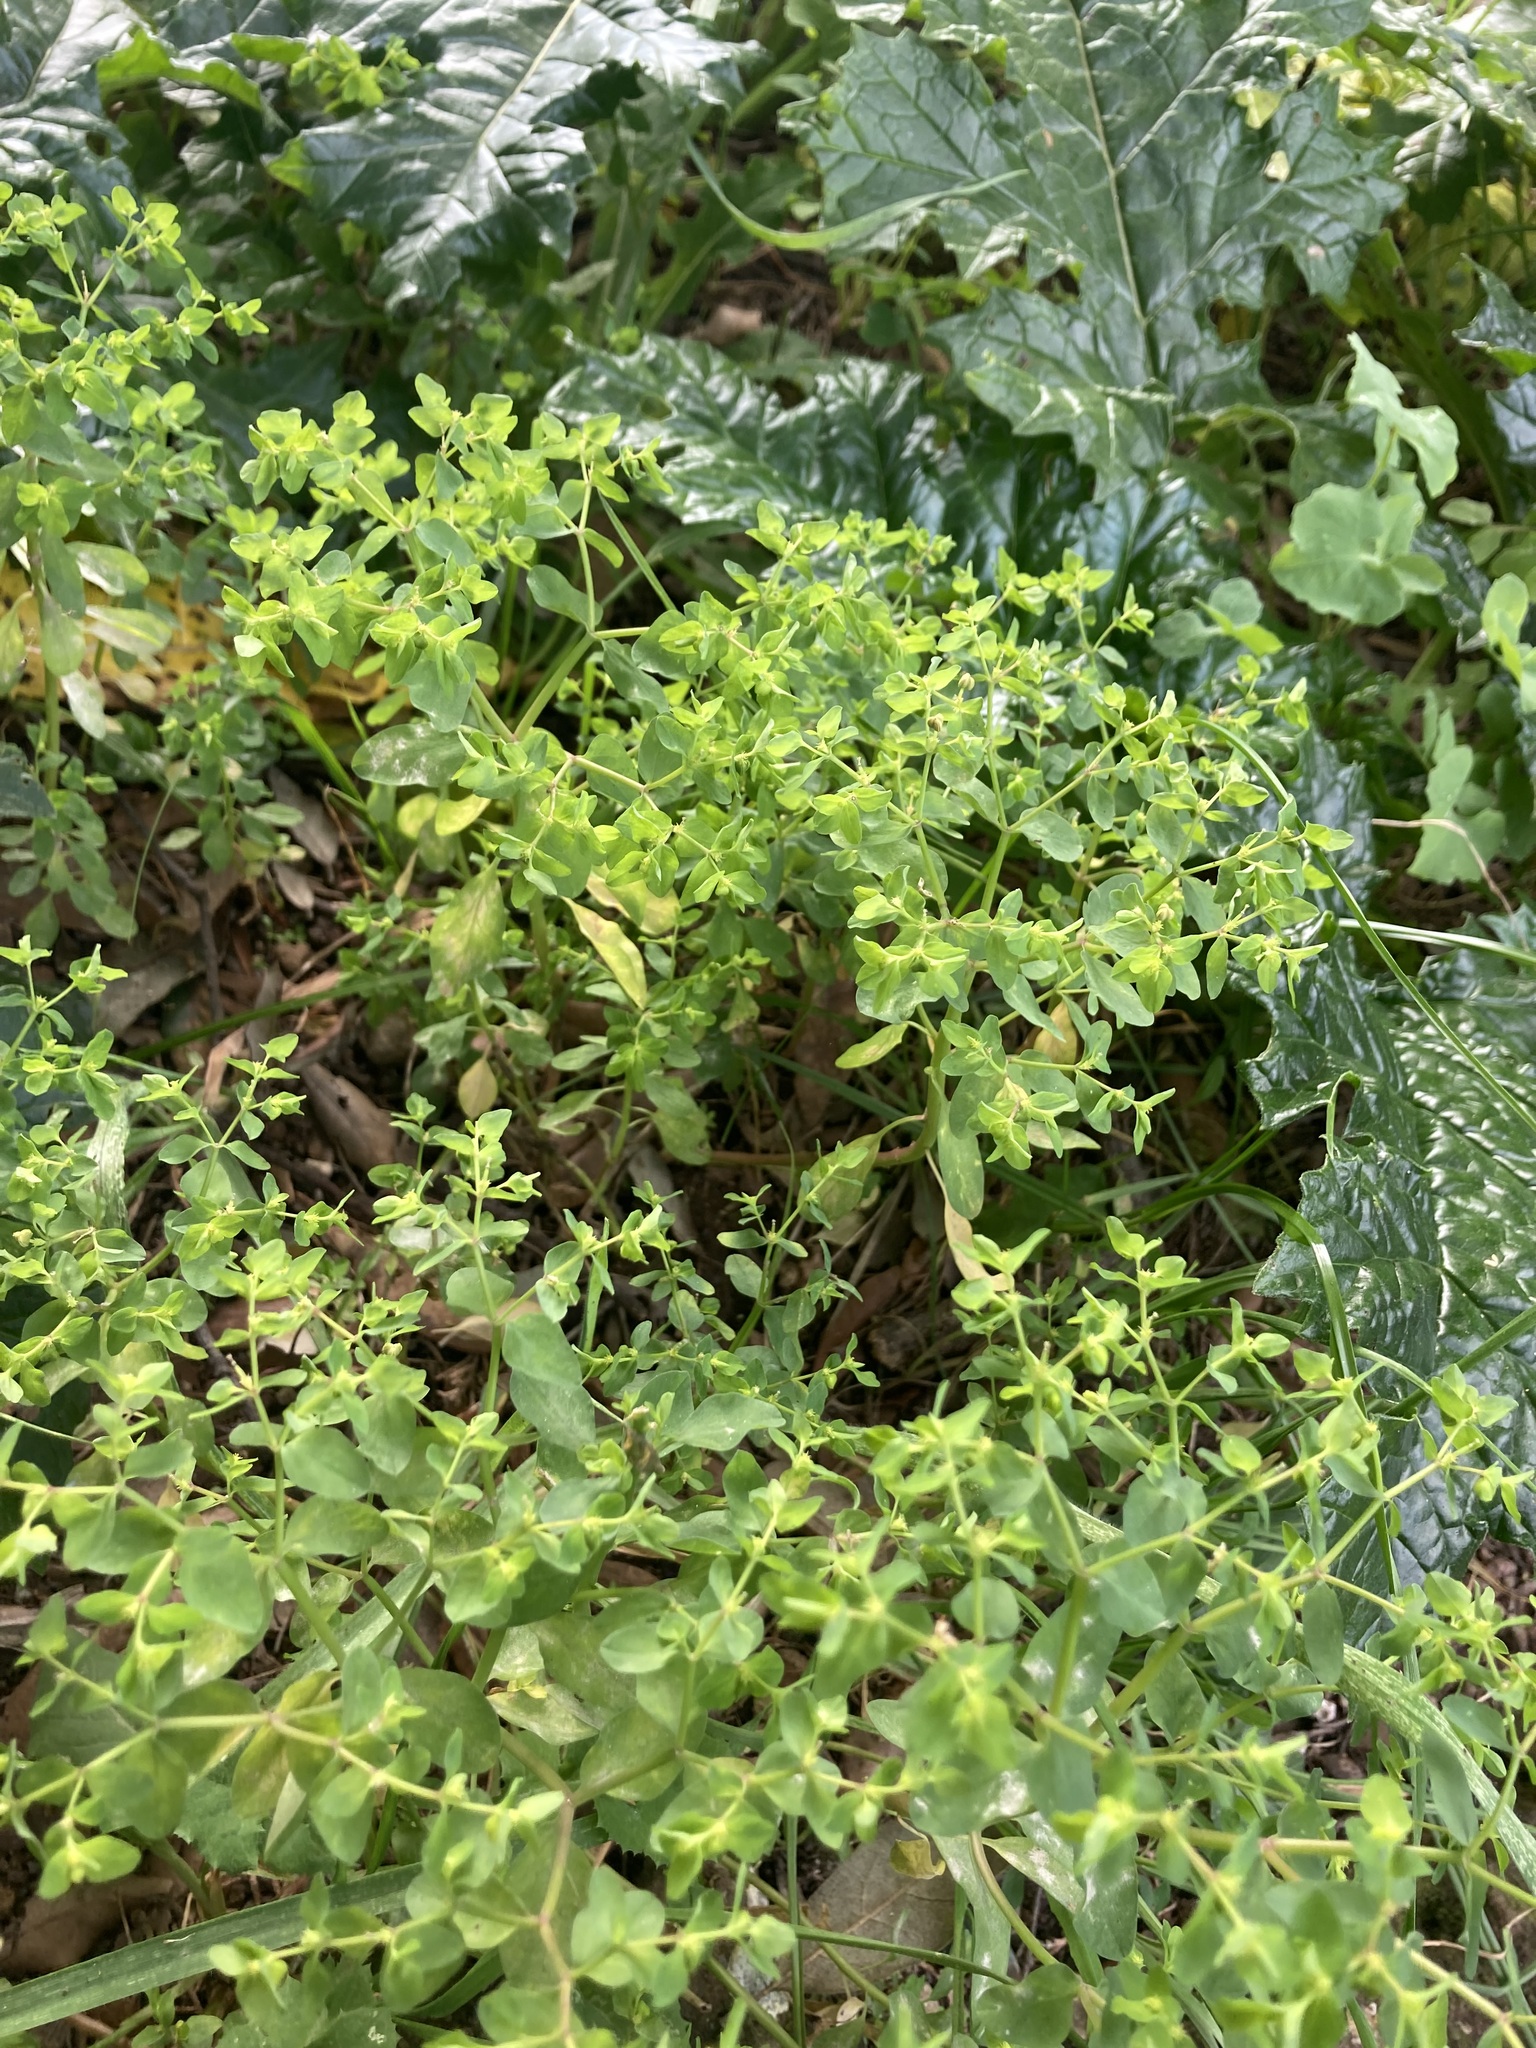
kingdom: Plantae
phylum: Tracheophyta
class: Magnoliopsida
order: Malpighiales
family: Euphorbiaceae
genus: Euphorbia
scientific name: Euphorbia peplus
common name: Petty spurge
